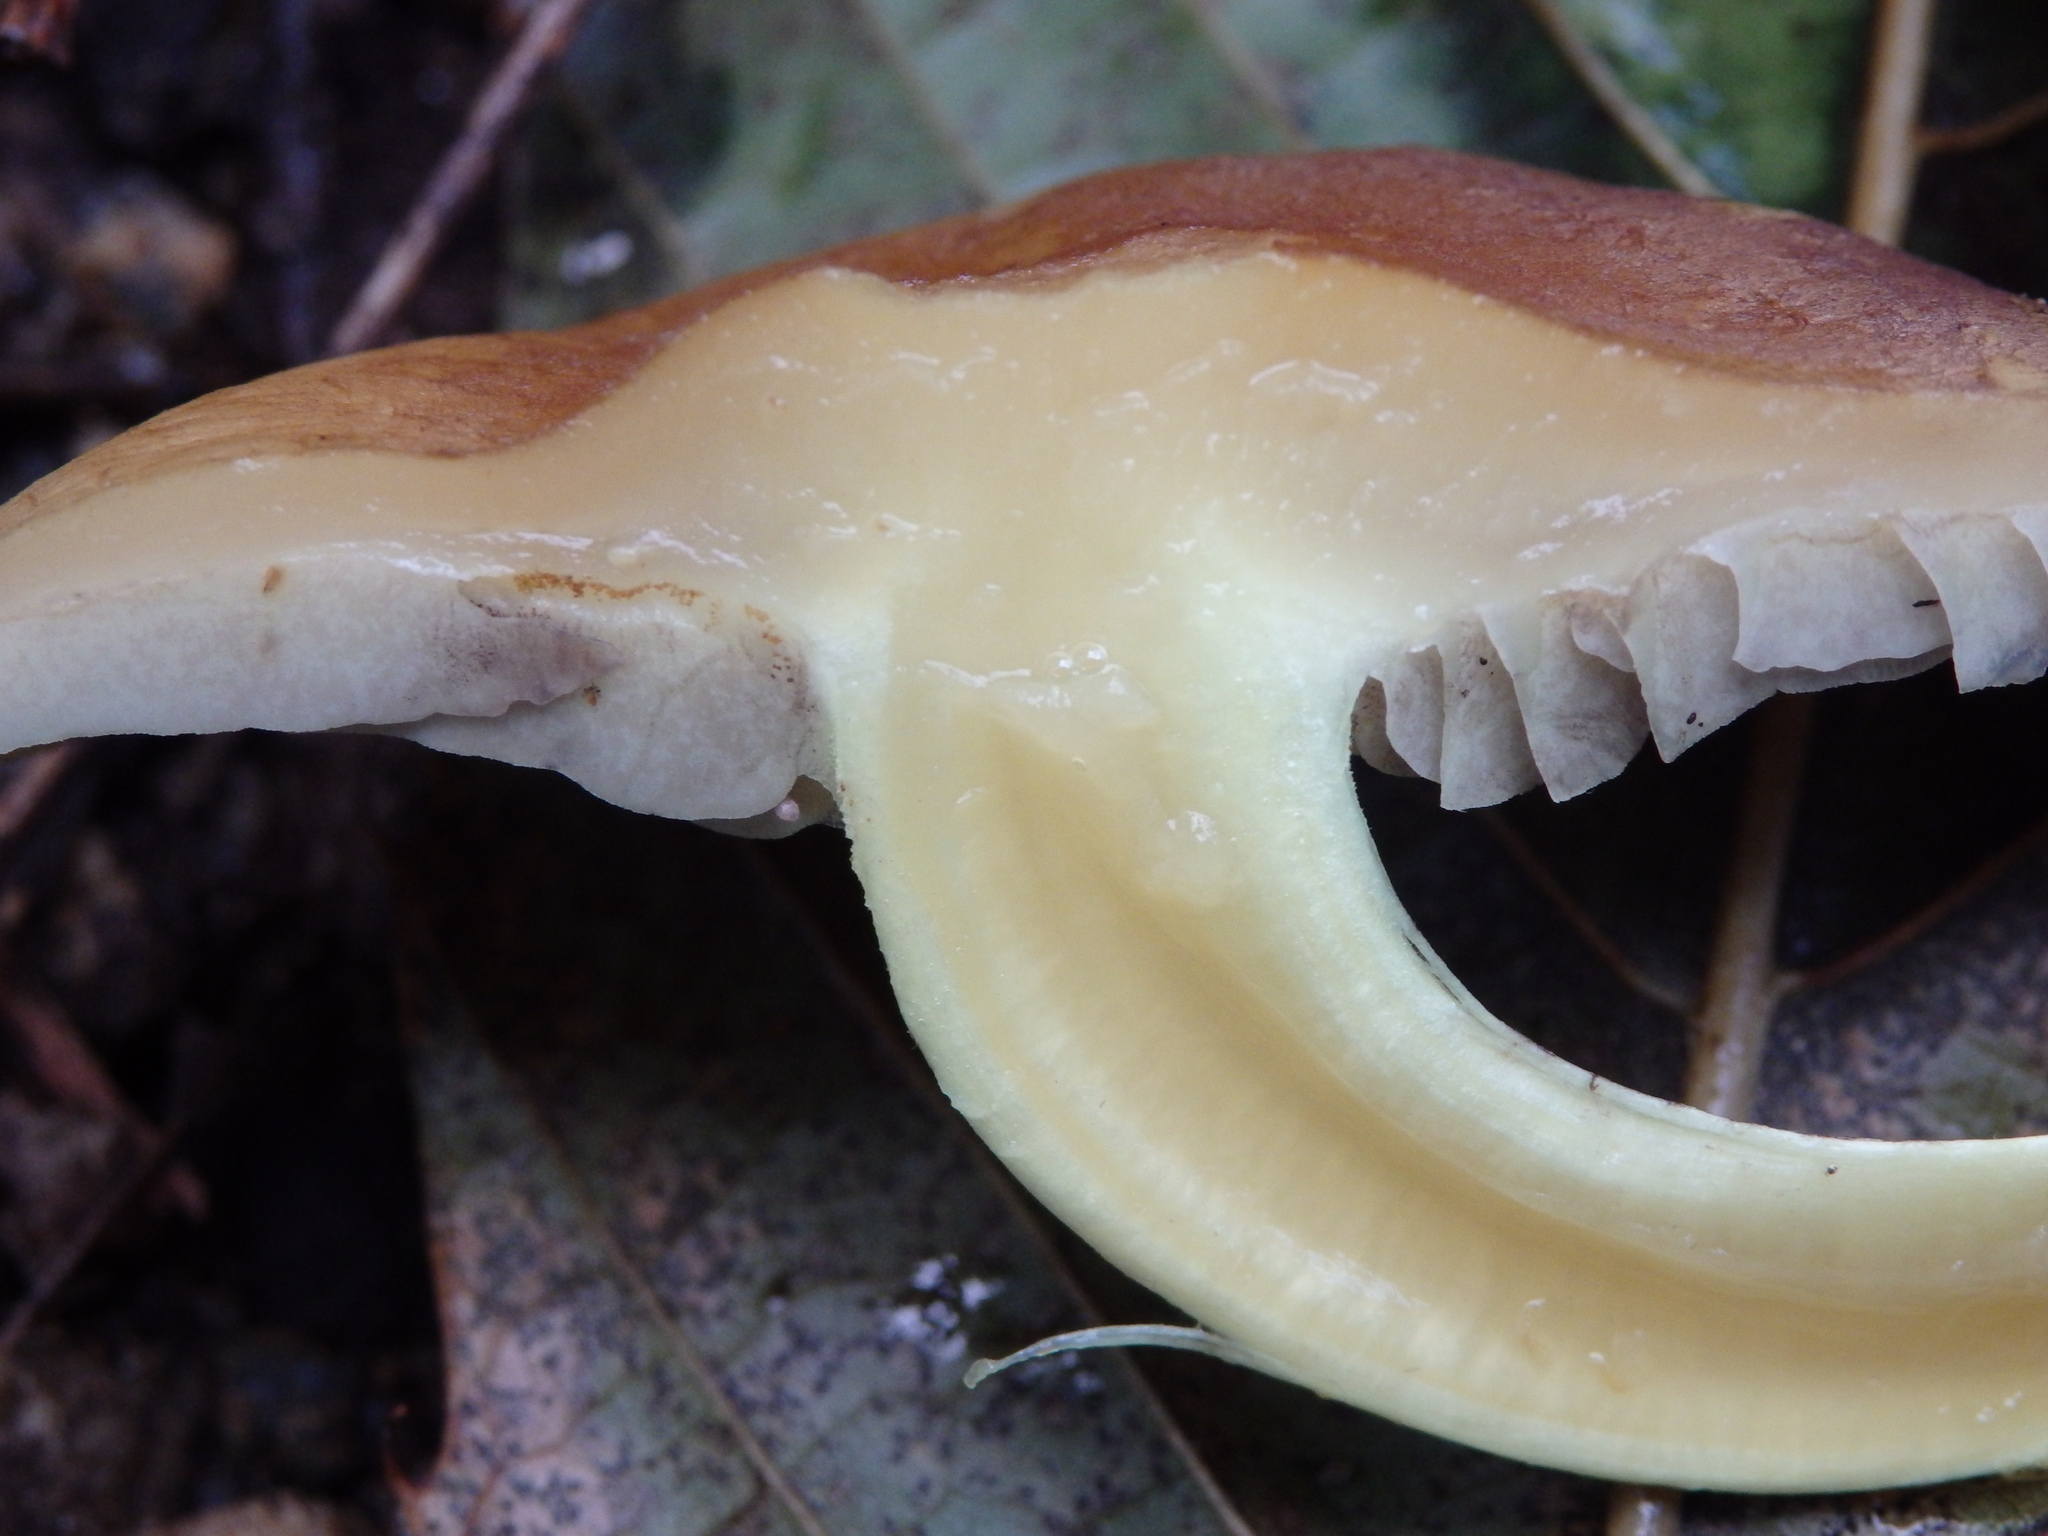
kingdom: Fungi
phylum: Basidiomycota
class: Agaricomycetes
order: Agaricales
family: Strophariaceae
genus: Hypholoma
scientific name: Hypholoma lateritium
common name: Brick caps
